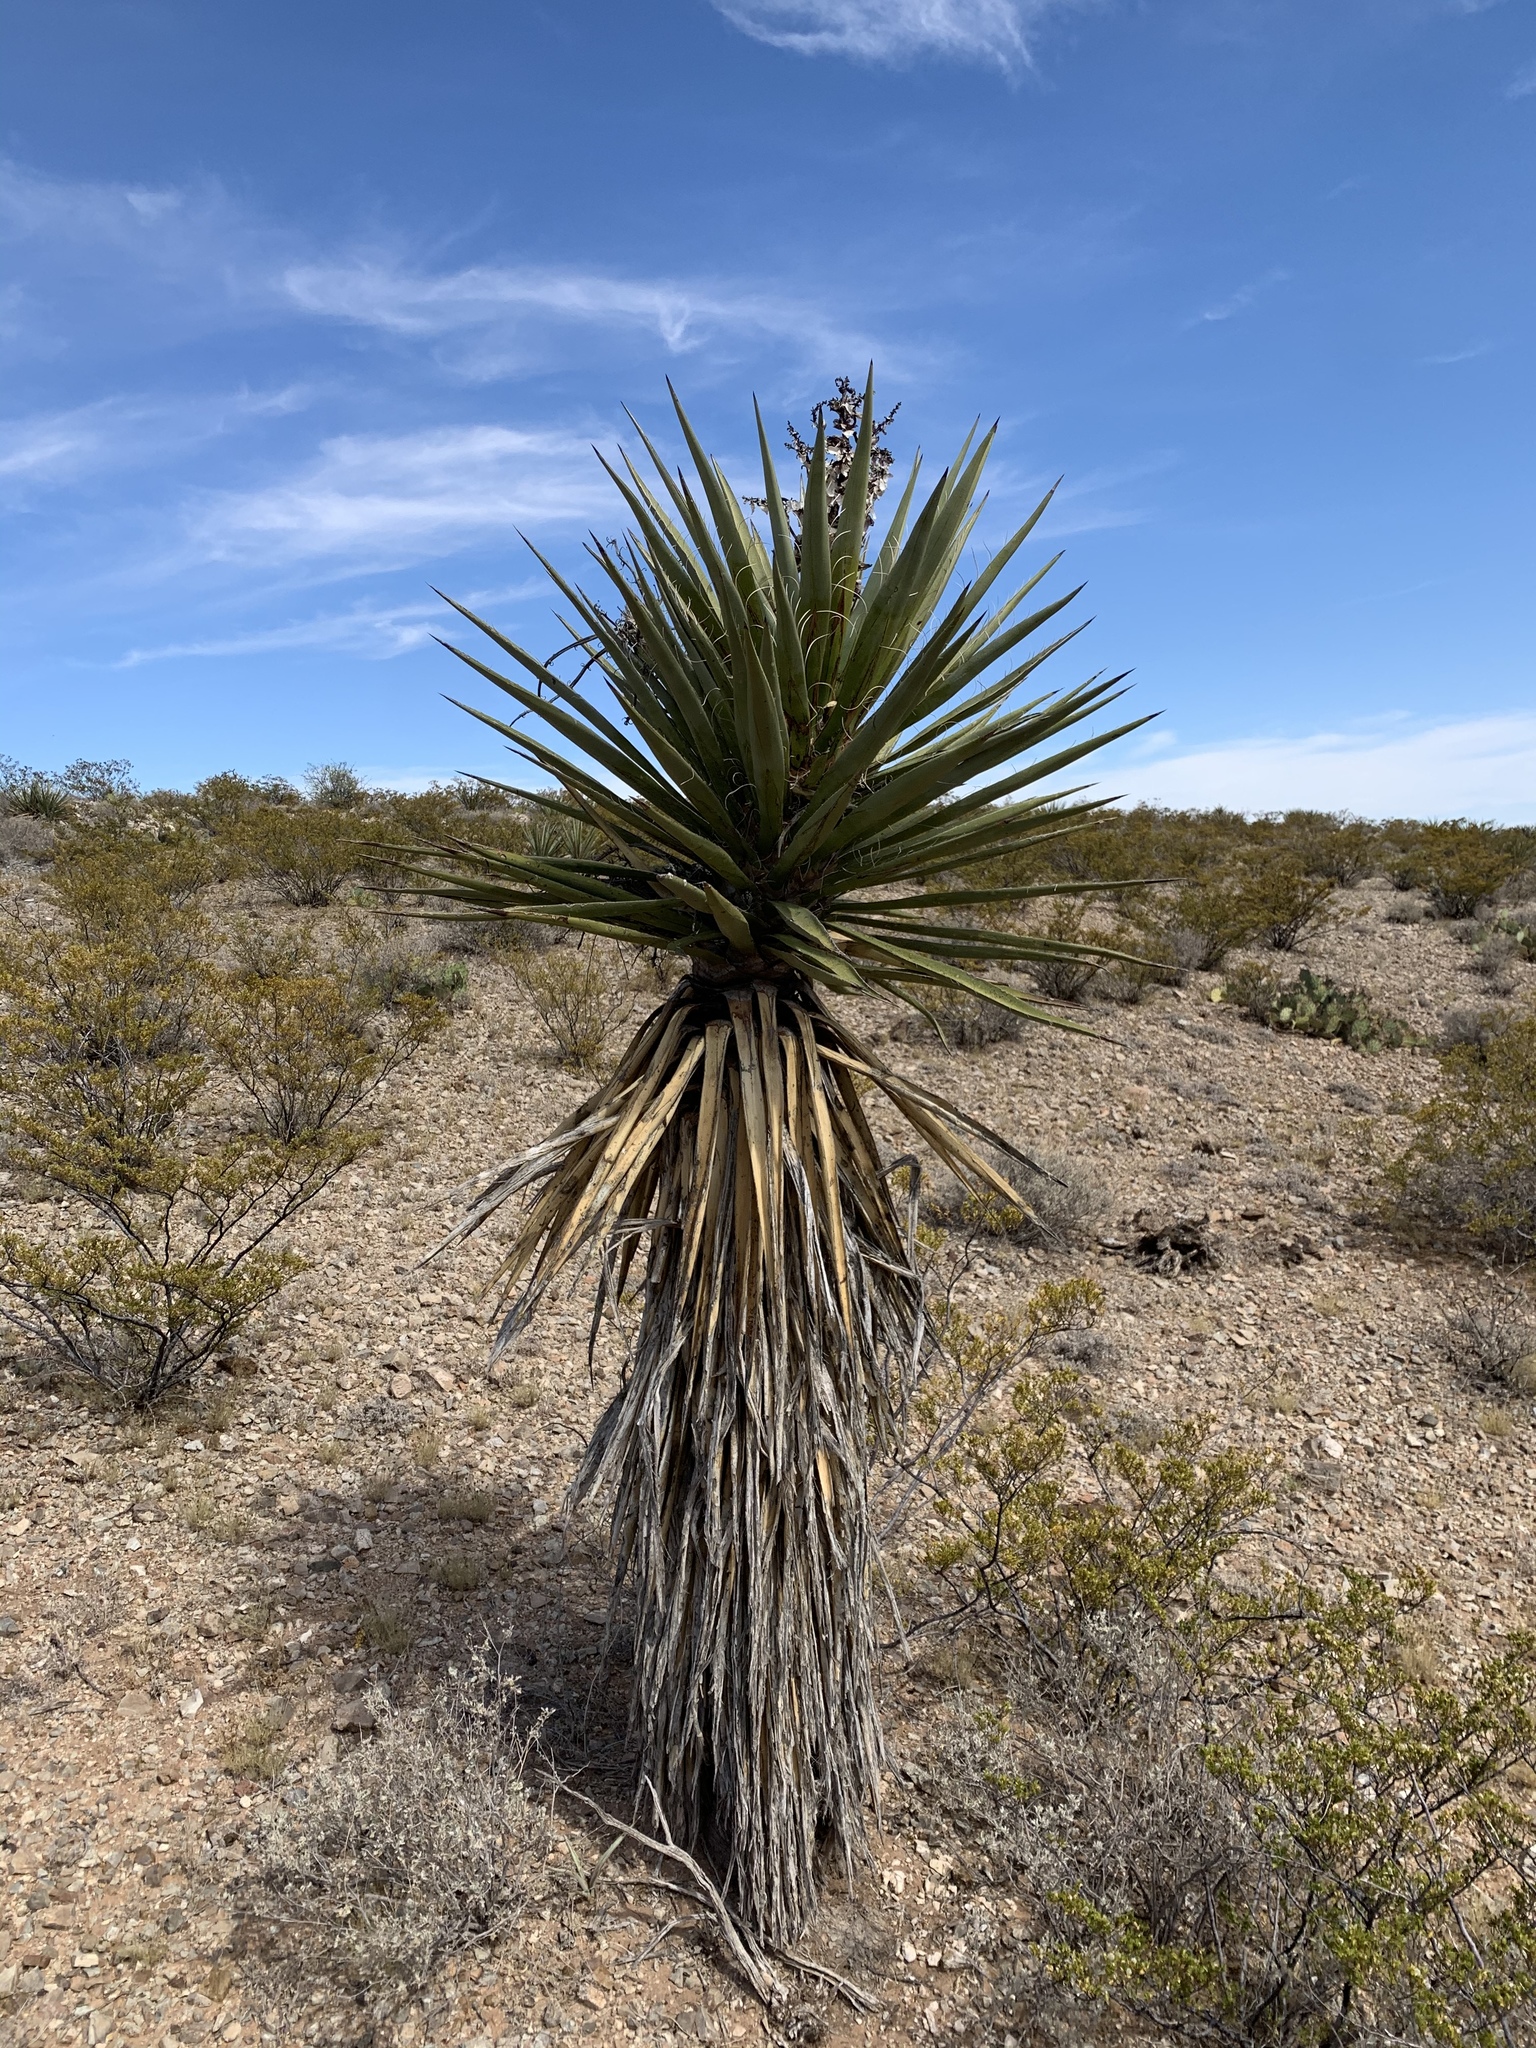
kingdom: Plantae
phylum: Tracheophyta
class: Liliopsida
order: Asparagales
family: Asparagaceae
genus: Yucca
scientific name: Yucca faxoniana
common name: Spanish dagger
